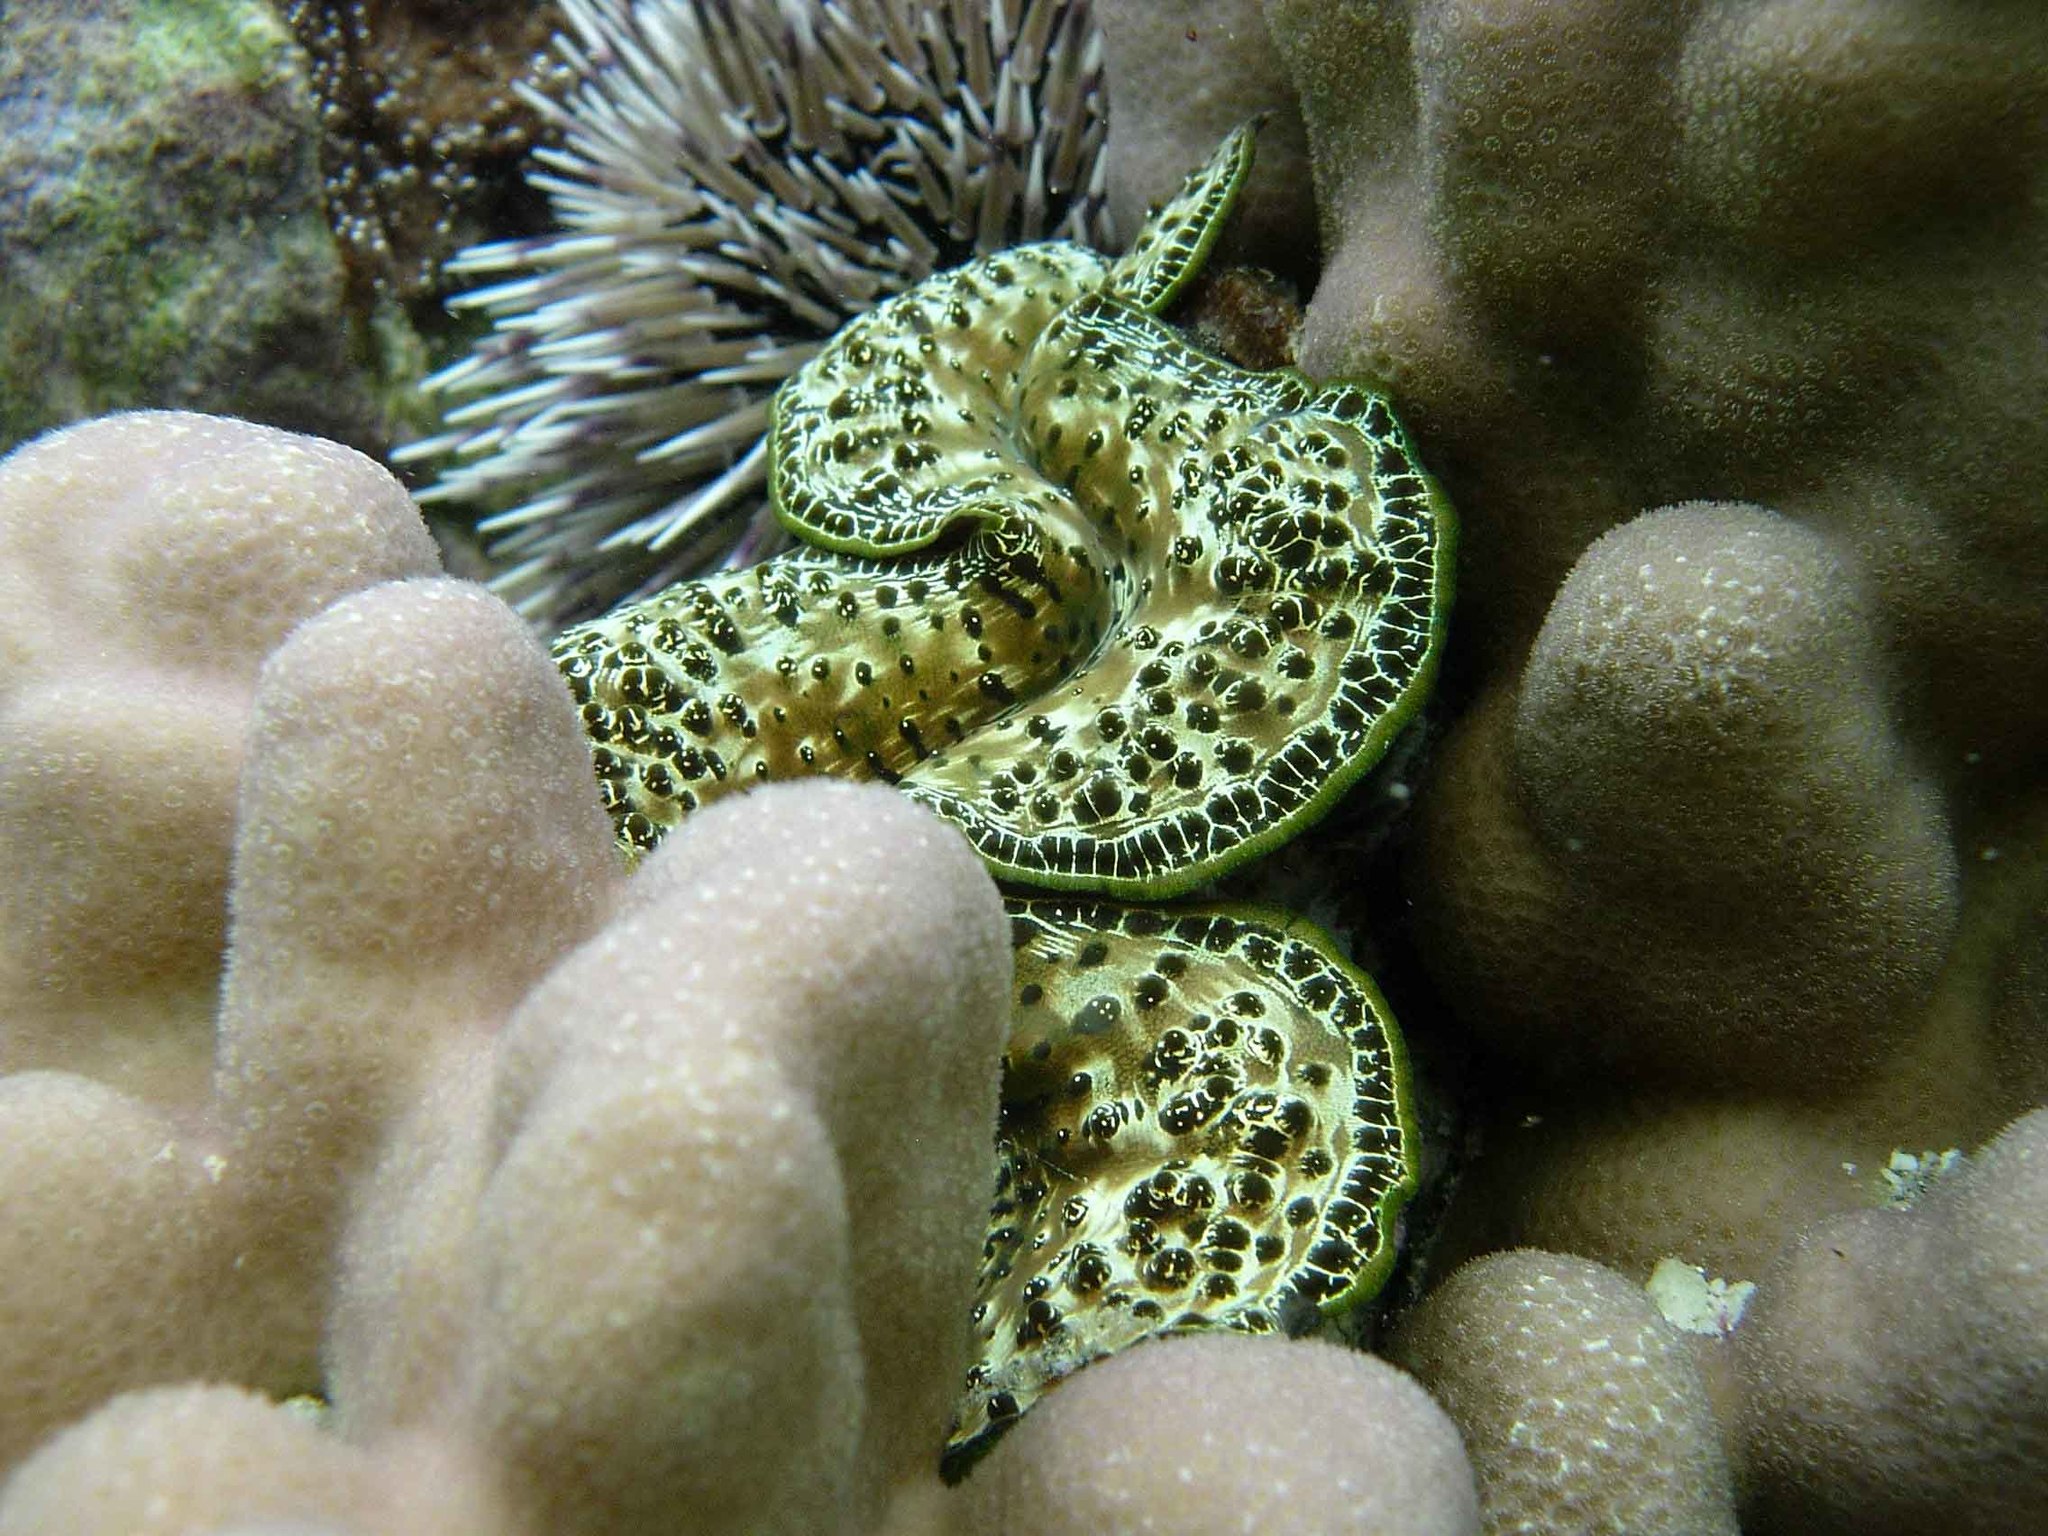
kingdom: Animalia
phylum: Mollusca
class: Bivalvia
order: Cardiida
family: Cardiidae
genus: Tridacna
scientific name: Tridacna maxima
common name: Small giant clam
